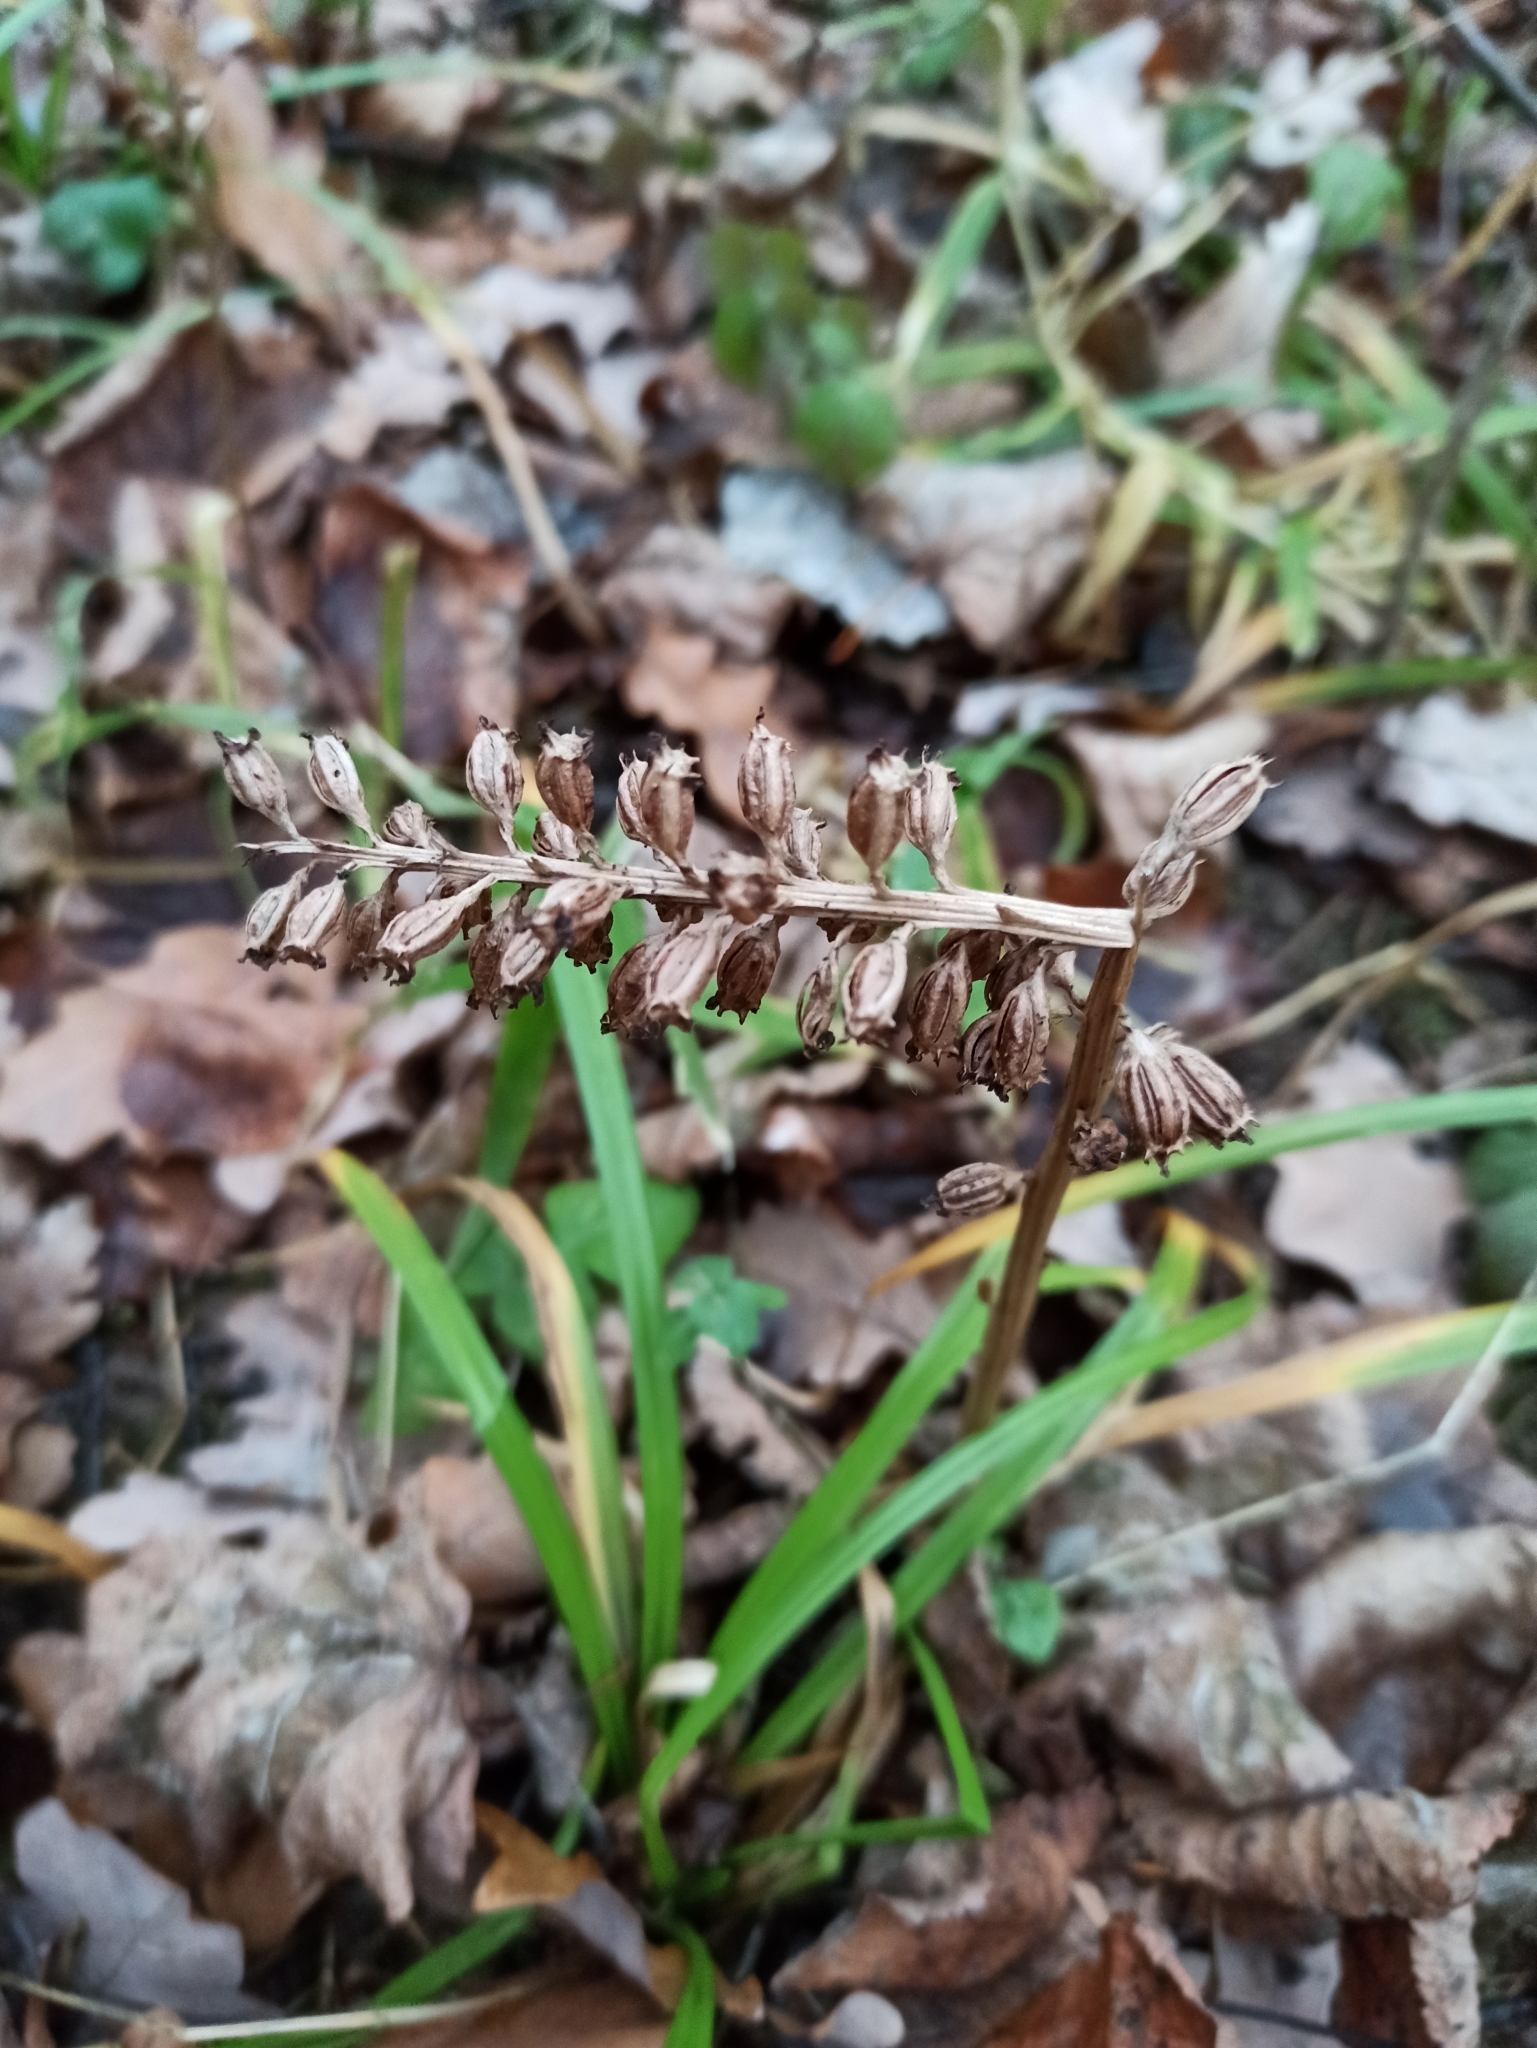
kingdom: Plantae
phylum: Tracheophyta
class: Liliopsida
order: Asparagales
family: Orchidaceae
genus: Neottia
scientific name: Neottia nidus-avis
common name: Bird's-nest orchid
